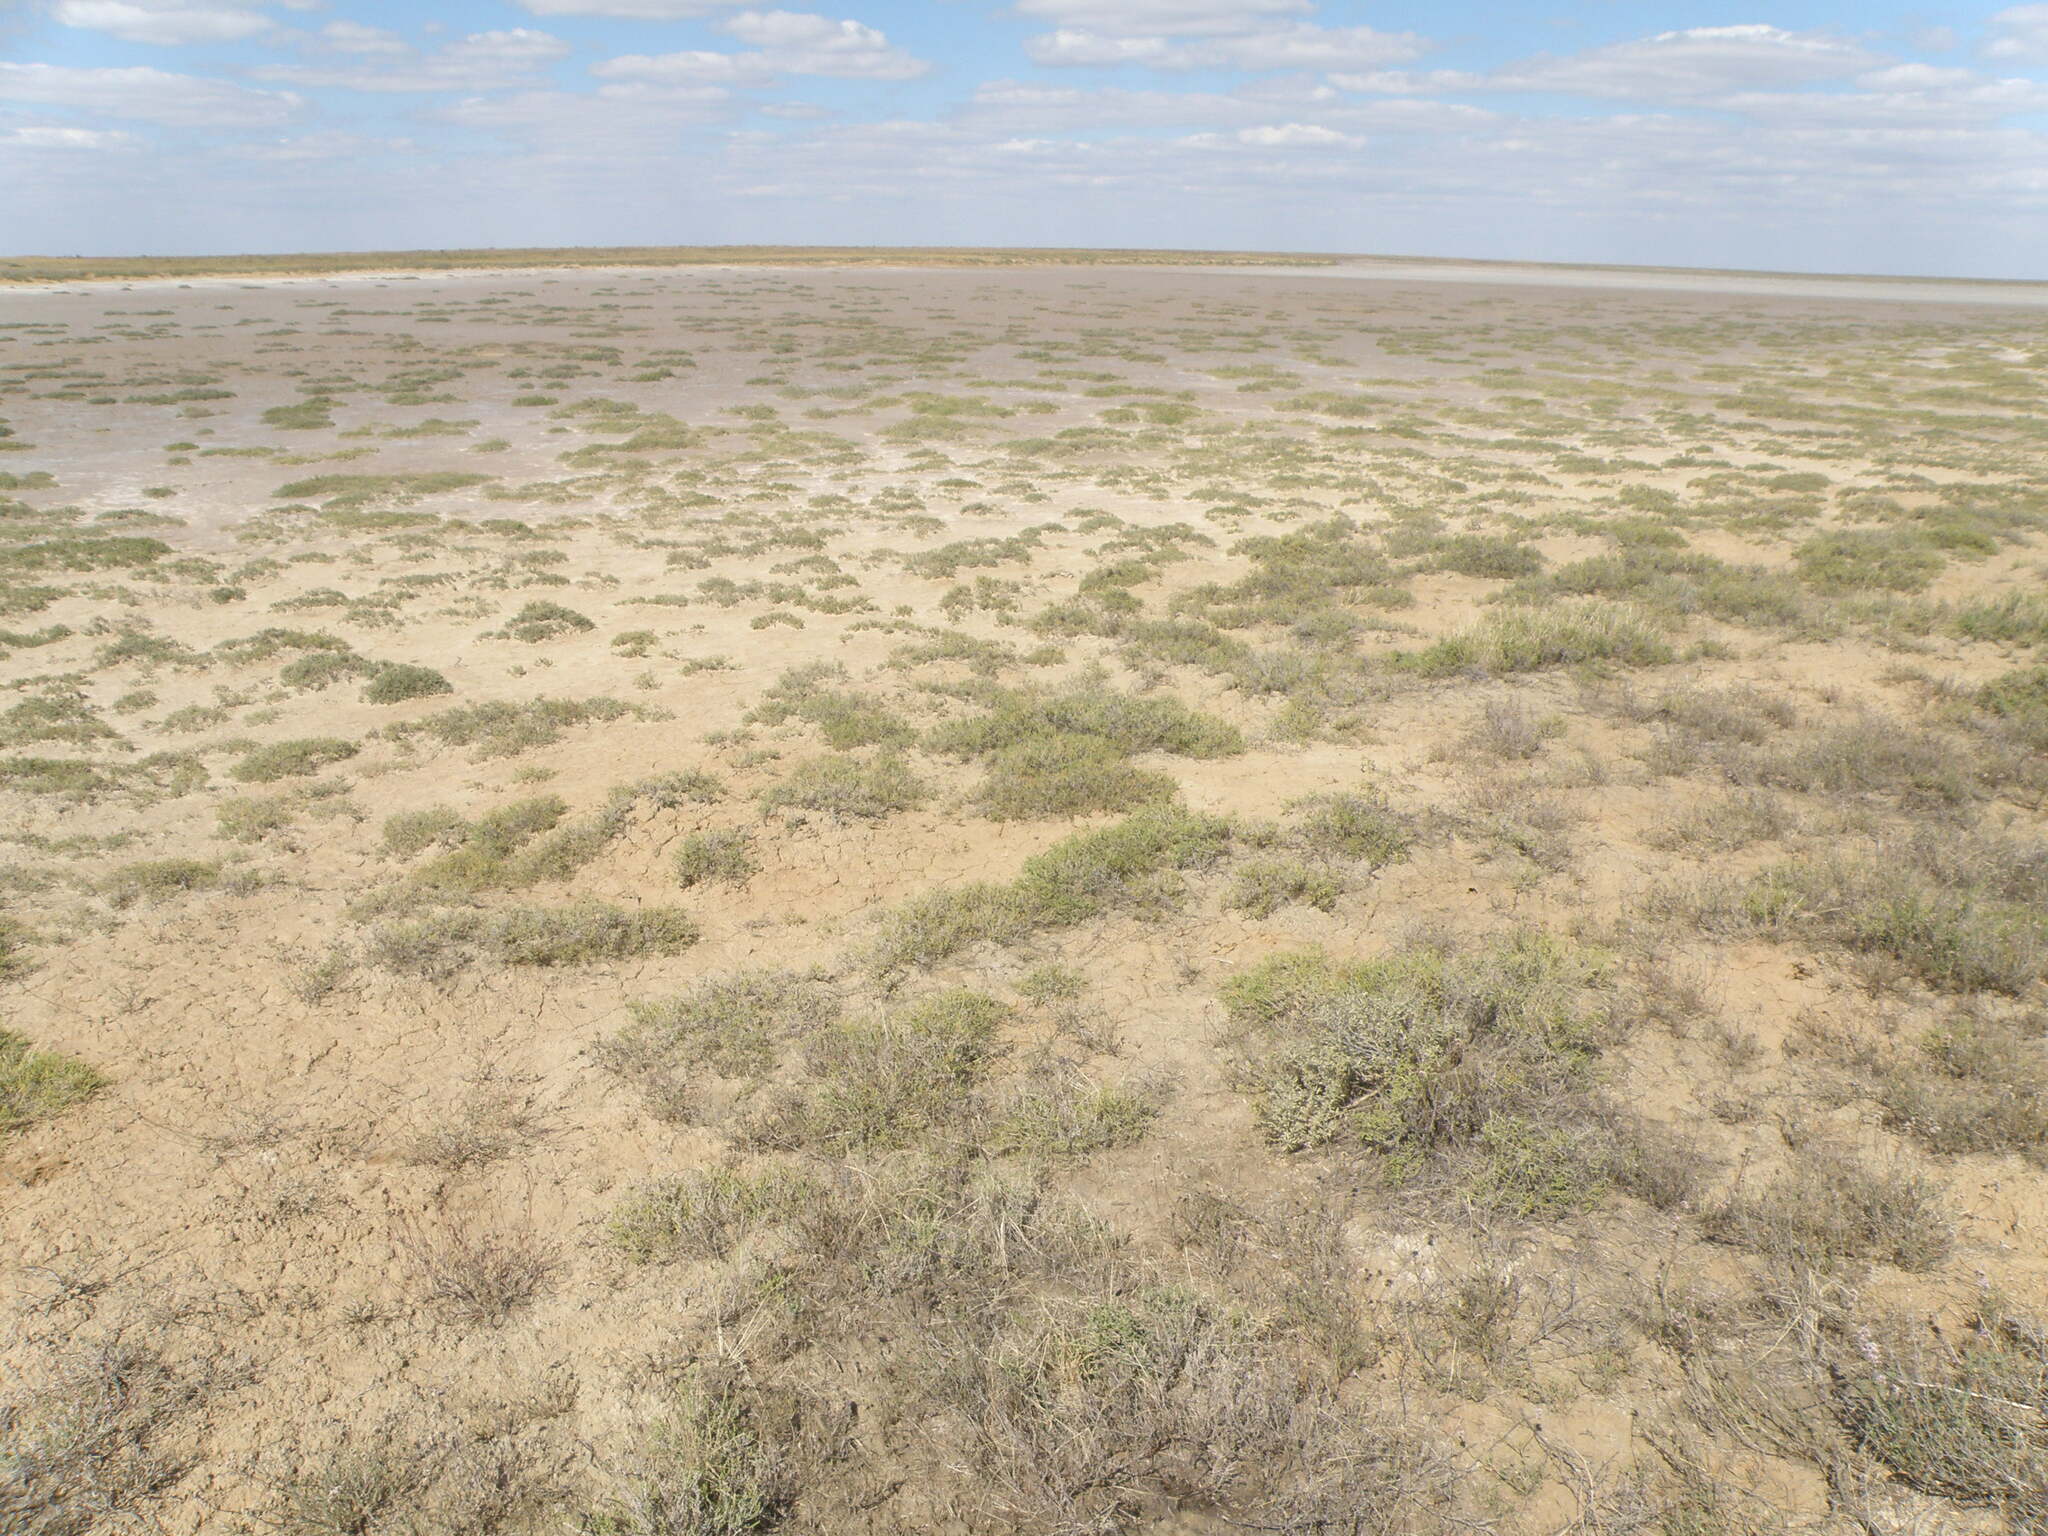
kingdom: Plantae
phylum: Tracheophyta
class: Magnoliopsida
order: Caryophyllales
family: Amaranthaceae
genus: Halocnemum
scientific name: Halocnemum strobilaceum
